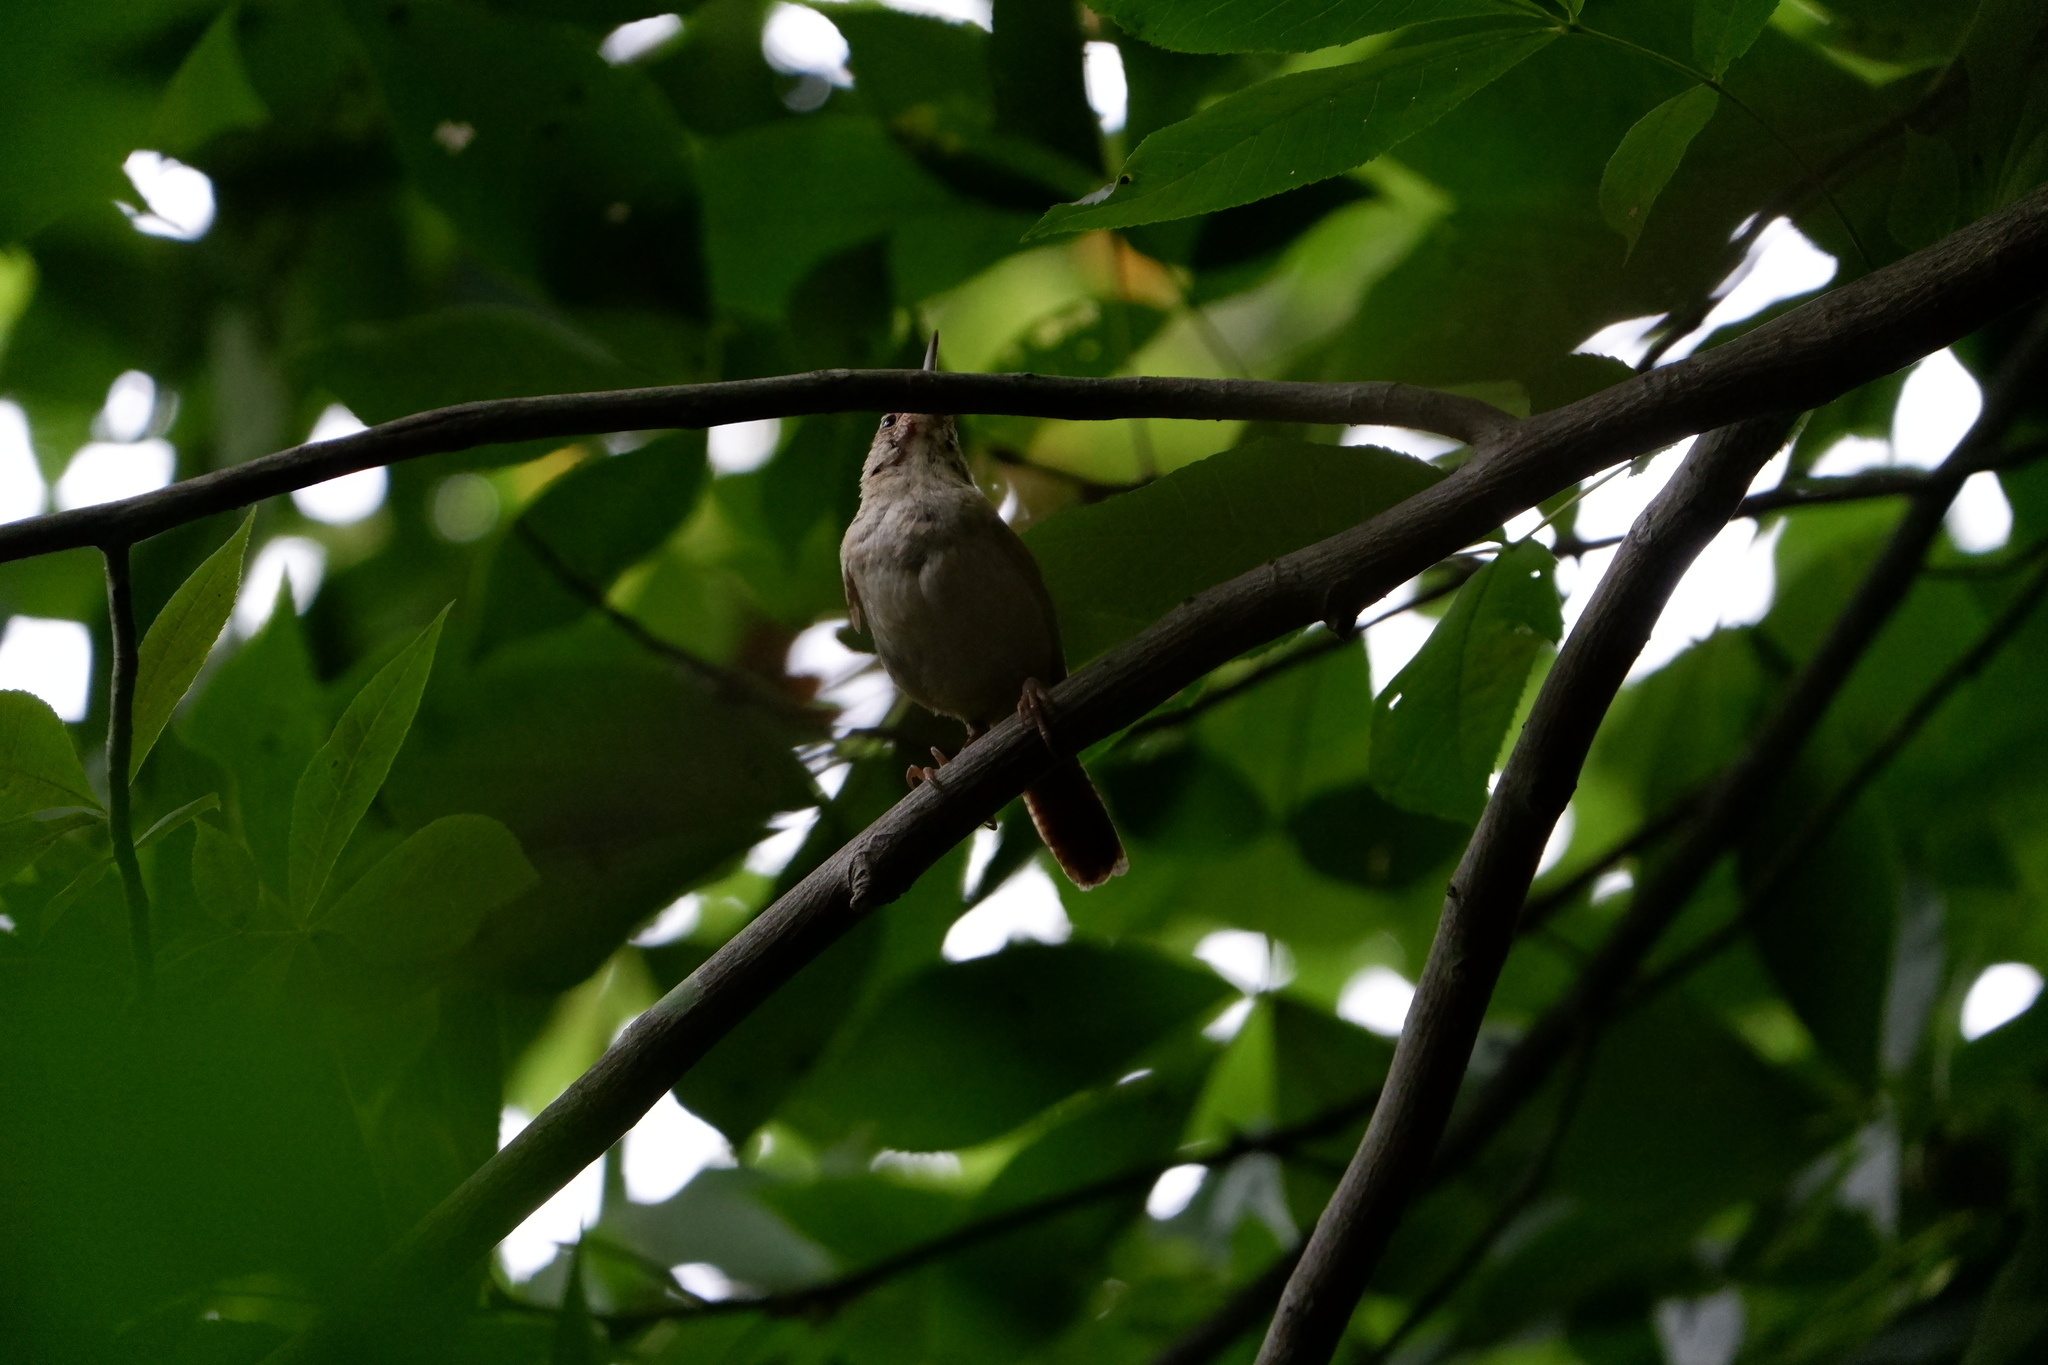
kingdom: Animalia
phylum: Chordata
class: Aves
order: Passeriformes
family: Troglodytidae
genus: Thryothorus
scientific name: Thryothorus ludovicianus
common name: Carolina wren
